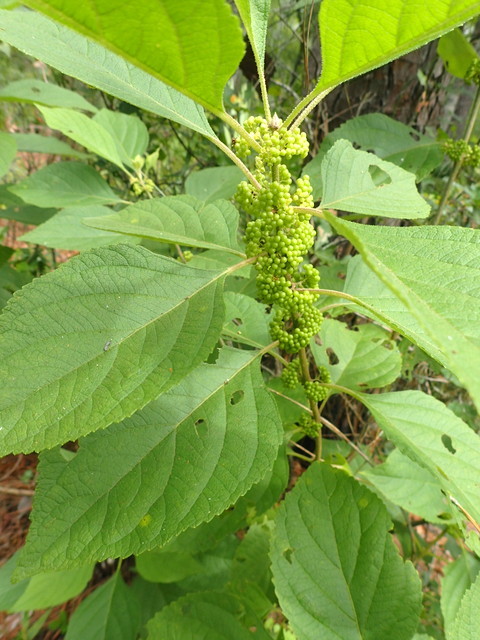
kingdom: Plantae
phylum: Tracheophyta
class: Magnoliopsida
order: Lamiales
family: Lamiaceae
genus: Callicarpa
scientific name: Callicarpa americana
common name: American beautyberry
